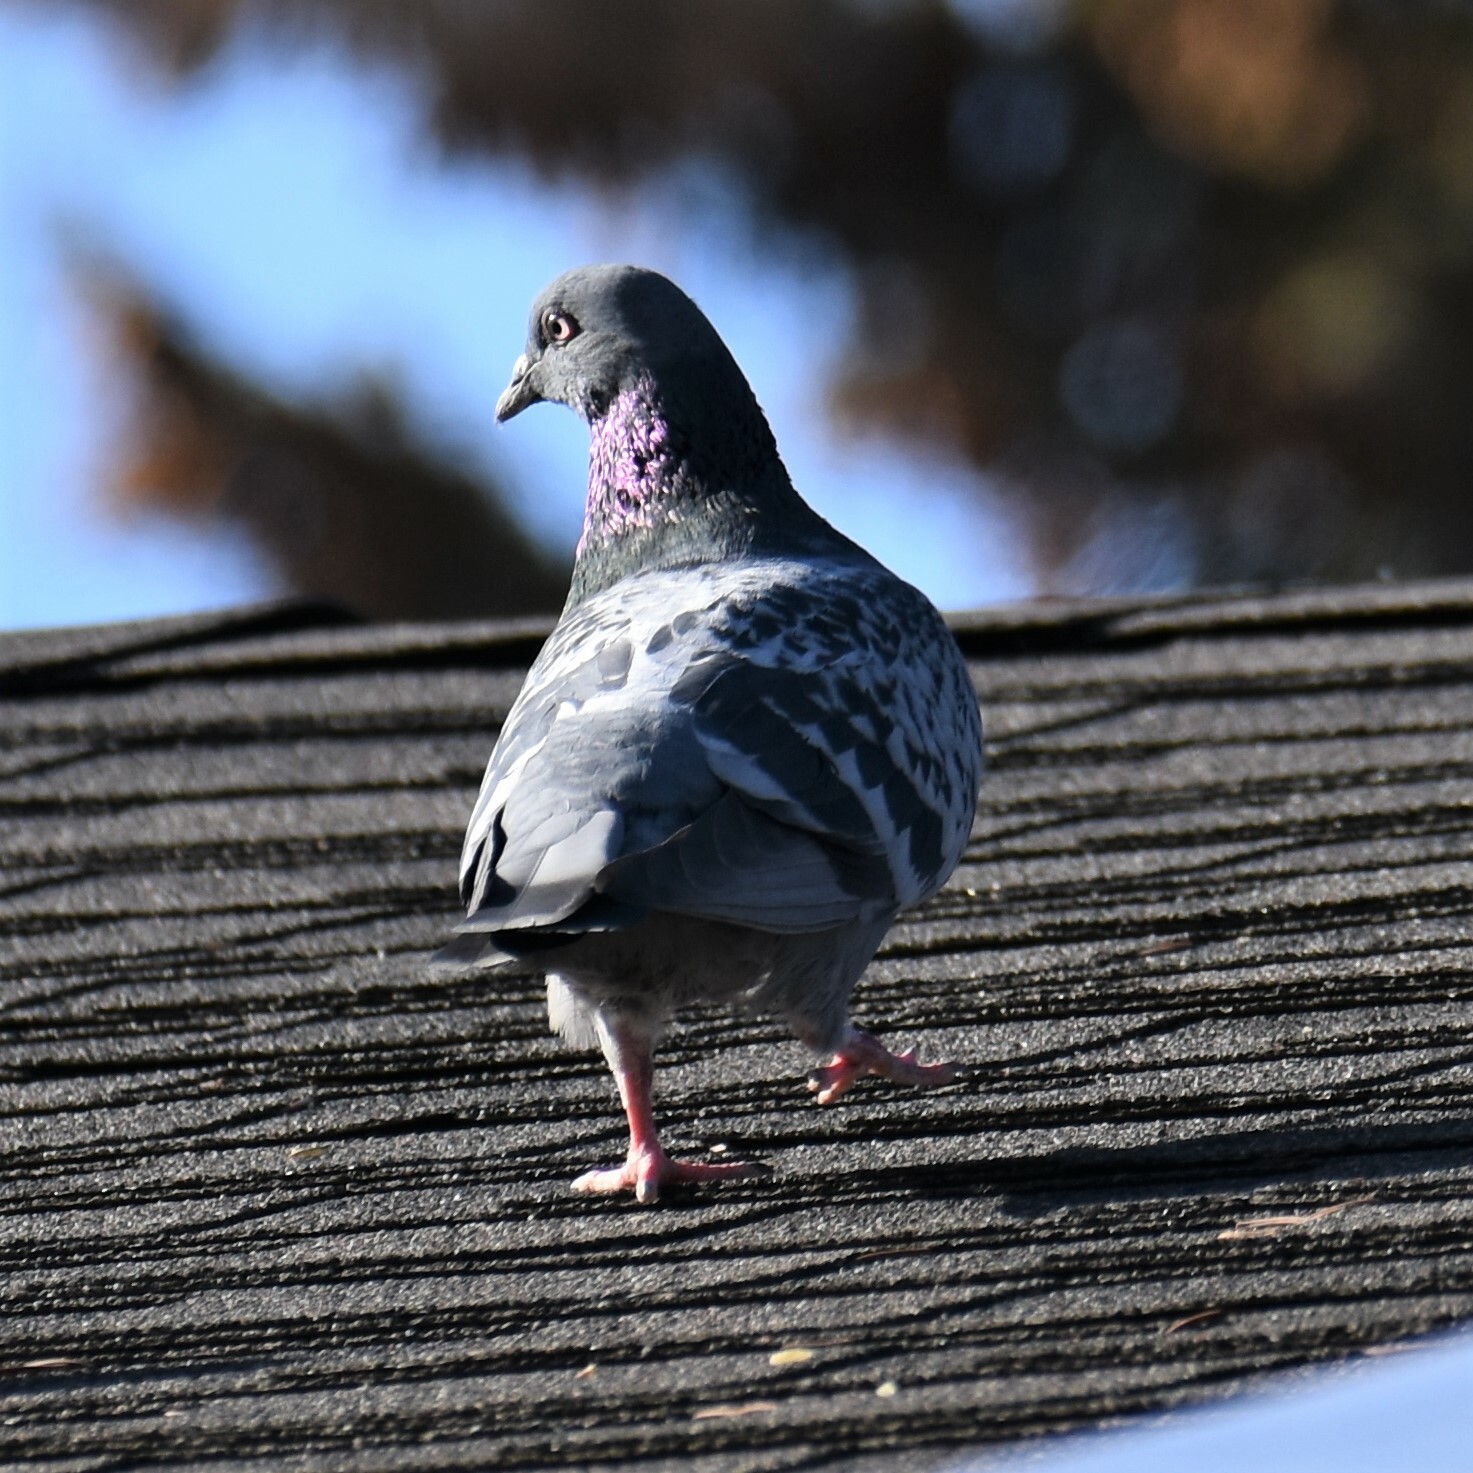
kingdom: Animalia
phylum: Chordata
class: Aves
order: Columbiformes
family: Columbidae
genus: Columba
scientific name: Columba livia
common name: Rock pigeon
